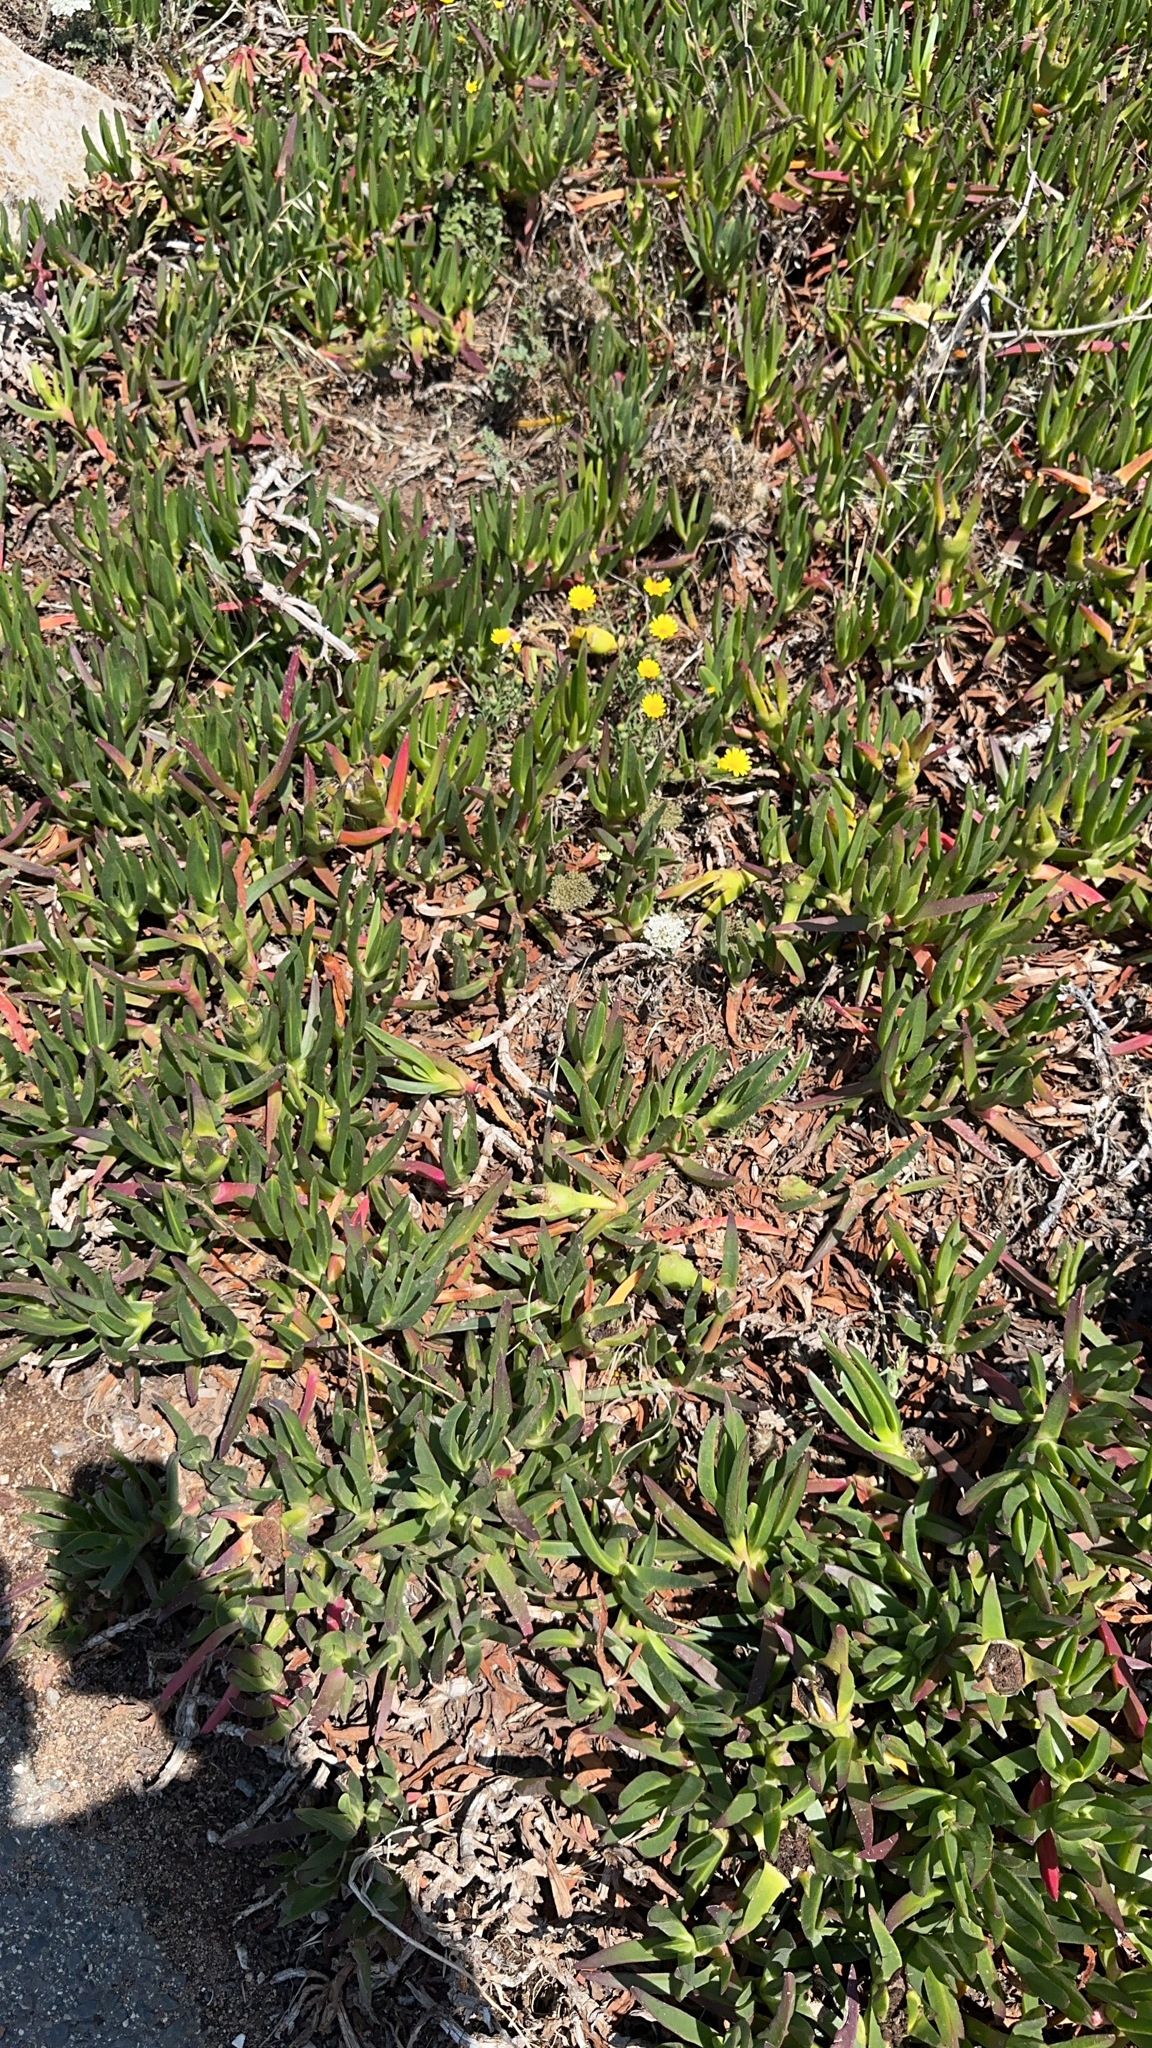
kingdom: Plantae
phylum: Tracheophyta
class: Magnoliopsida
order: Caryophyllales
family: Aizoaceae
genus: Carpobrotus
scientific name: Carpobrotus edulis
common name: Hottentot-fig
